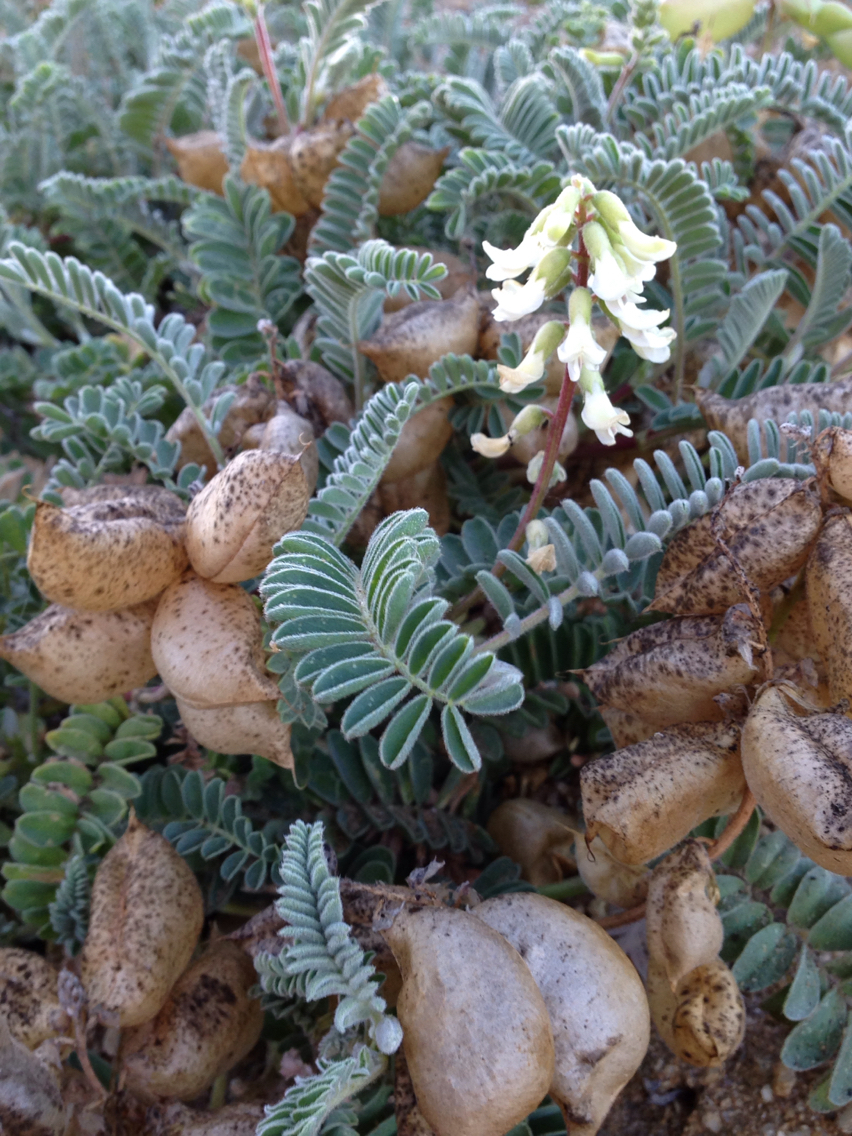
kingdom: Plantae
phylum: Tracheophyta
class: Magnoliopsida
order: Fabales
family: Fabaceae
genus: Astragalus
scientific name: Astragalus nuttallii
